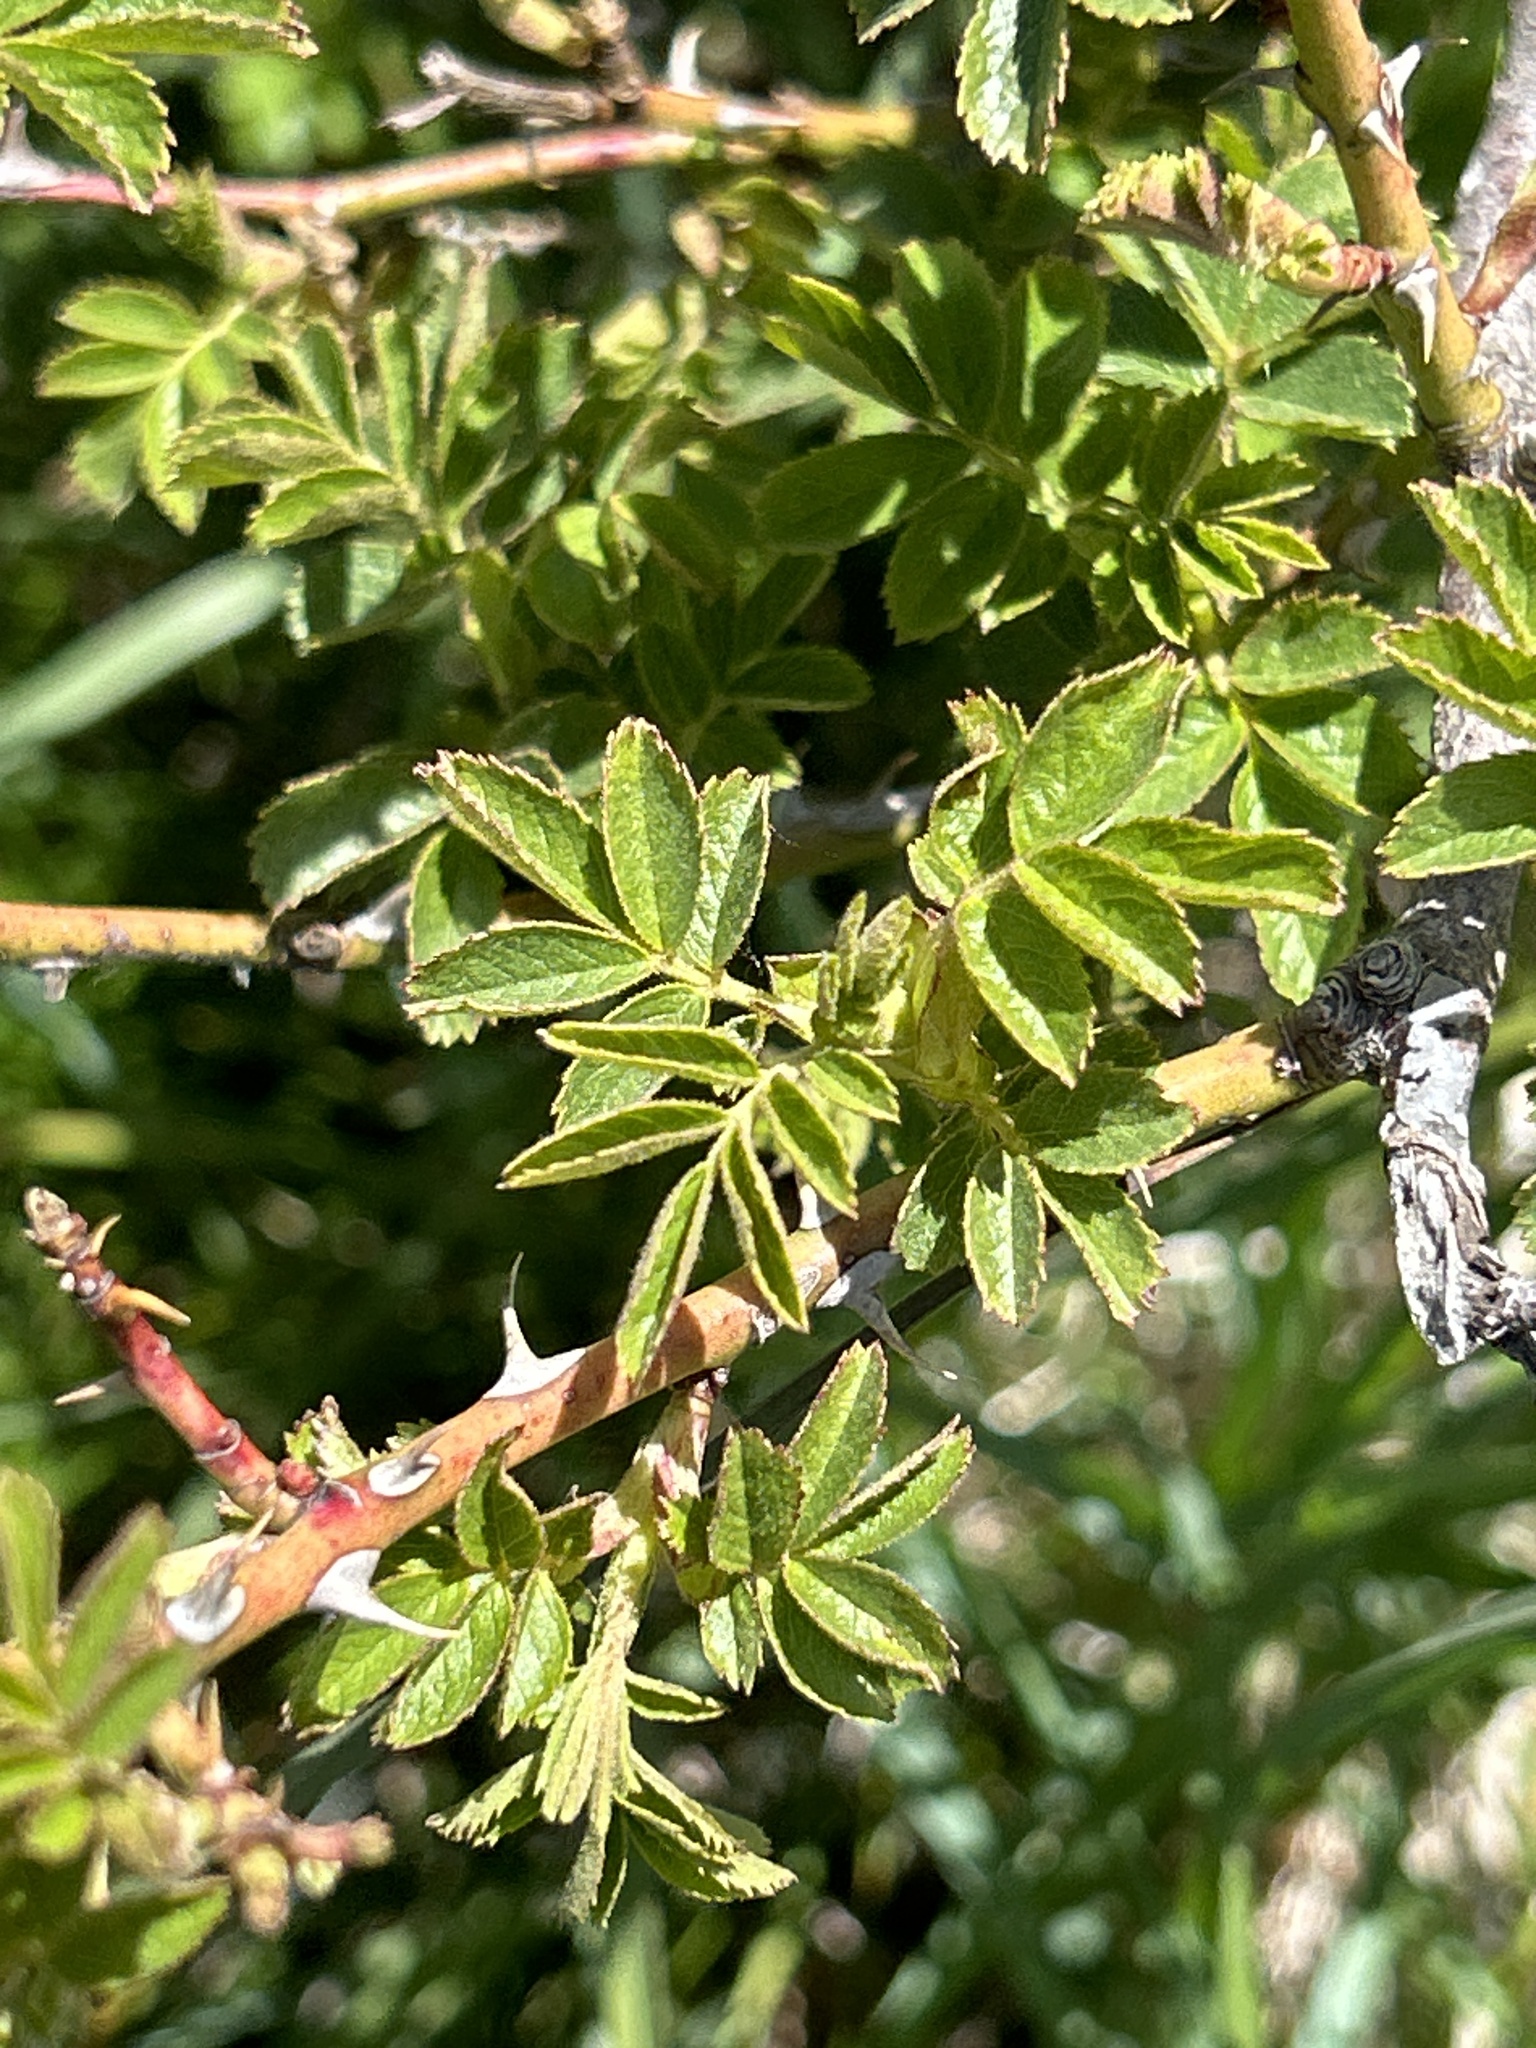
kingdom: Plantae
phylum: Tracheophyta
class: Magnoliopsida
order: Rosales
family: Rosaceae
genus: Rosa
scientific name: Rosa rubiginosa
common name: Sweet-briar
